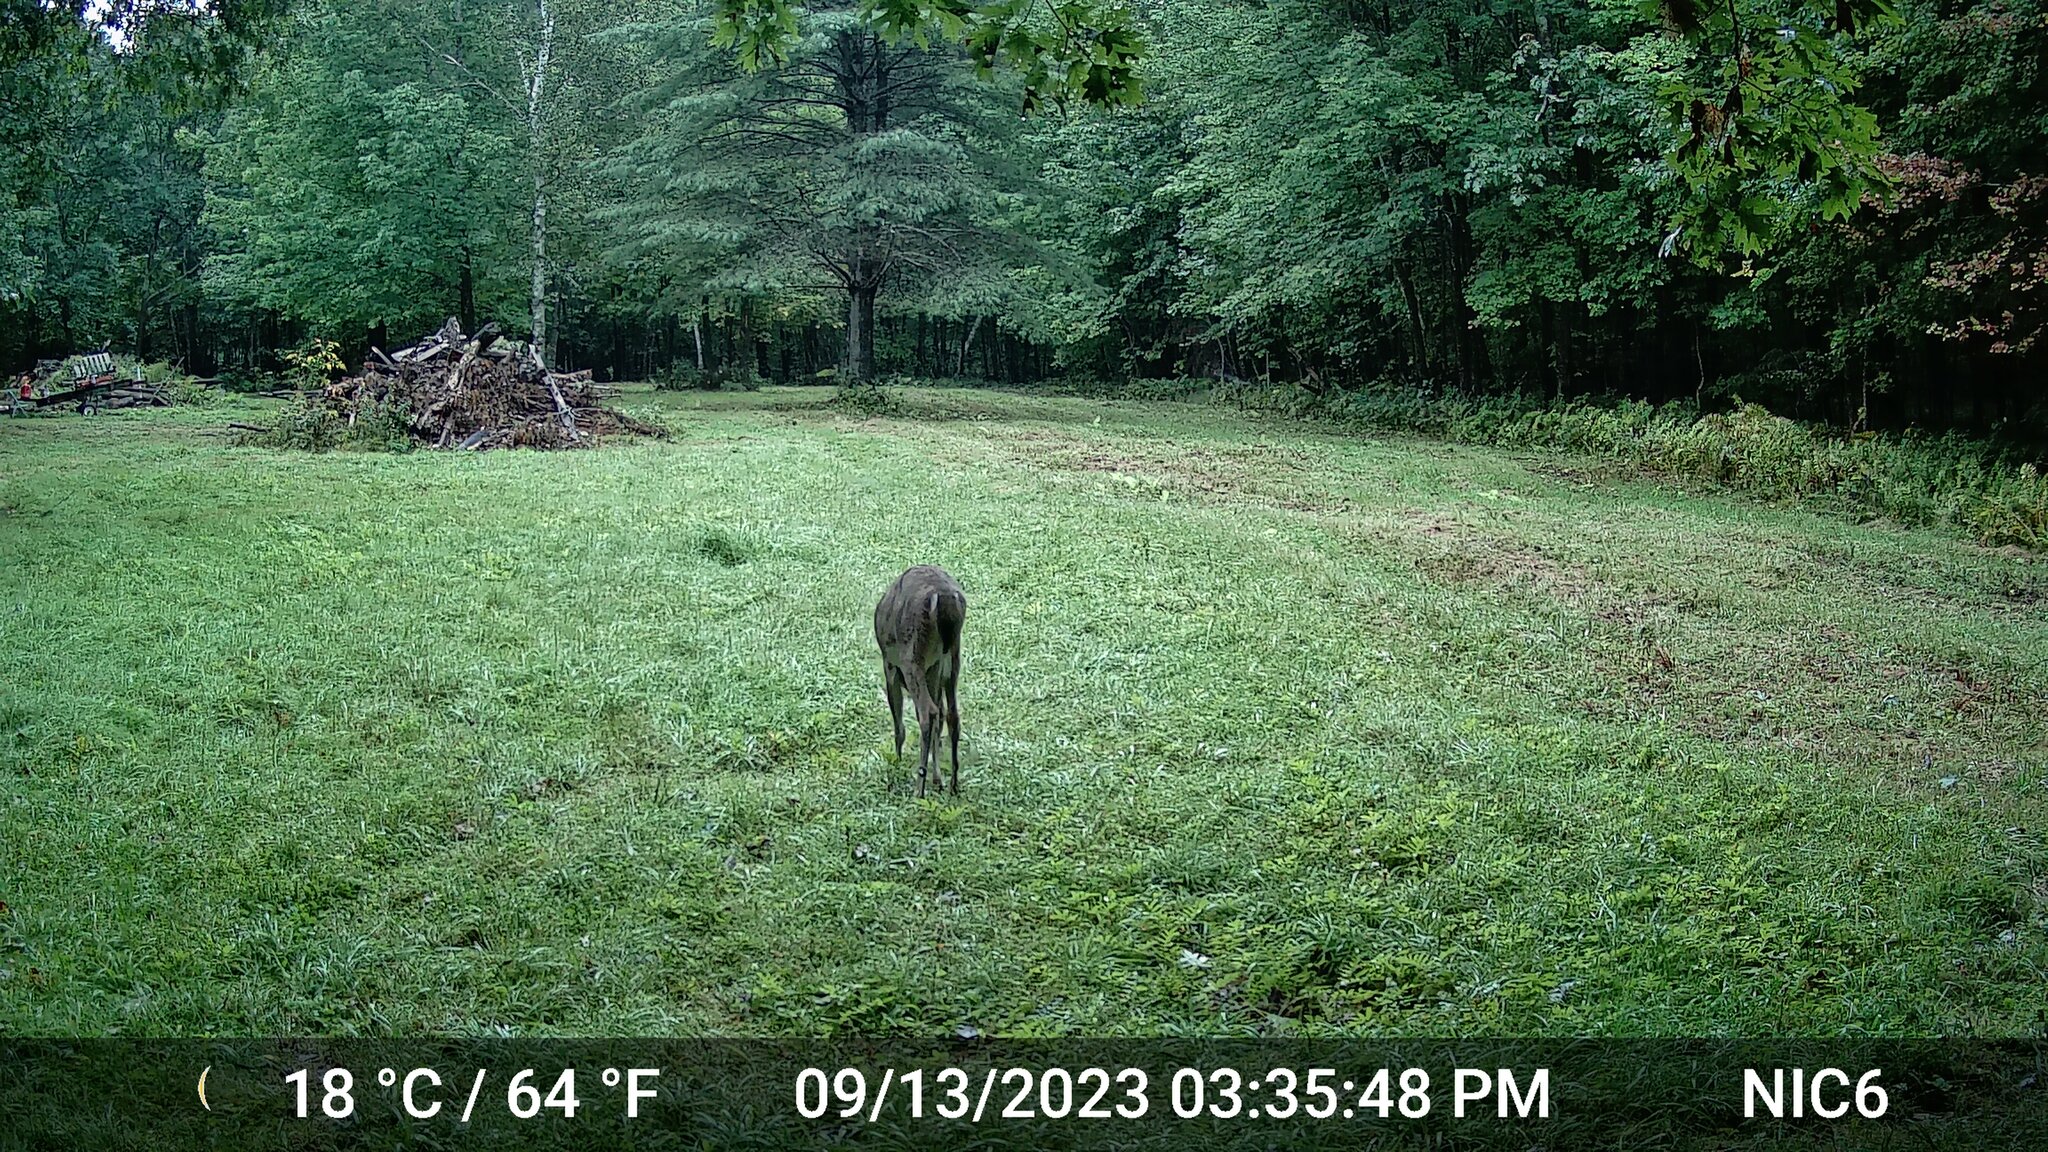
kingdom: Animalia
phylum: Chordata
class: Mammalia
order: Artiodactyla
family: Cervidae
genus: Odocoileus
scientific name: Odocoileus virginianus
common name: White-tailed deer
